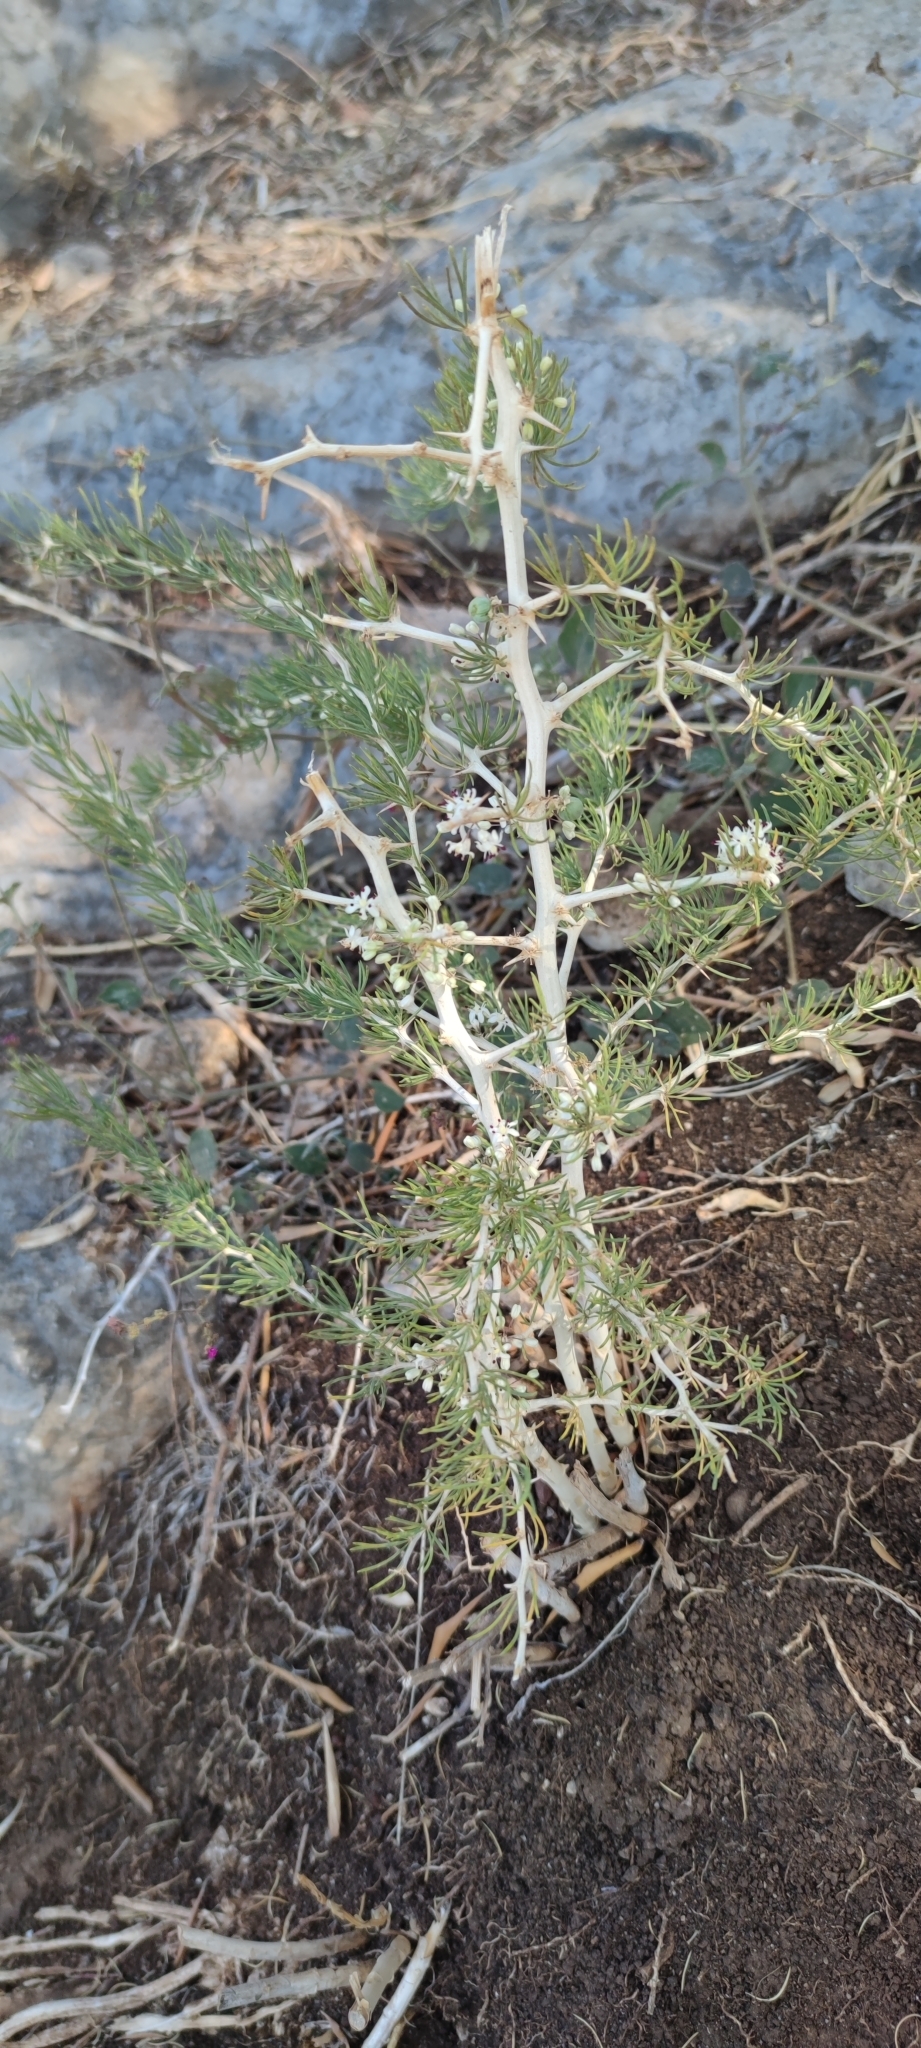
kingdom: Plantae
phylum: Tracheophyta
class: Liliopsida
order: Asparagales
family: Asparagaceae
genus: Asparagus
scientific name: Asparagus albus
